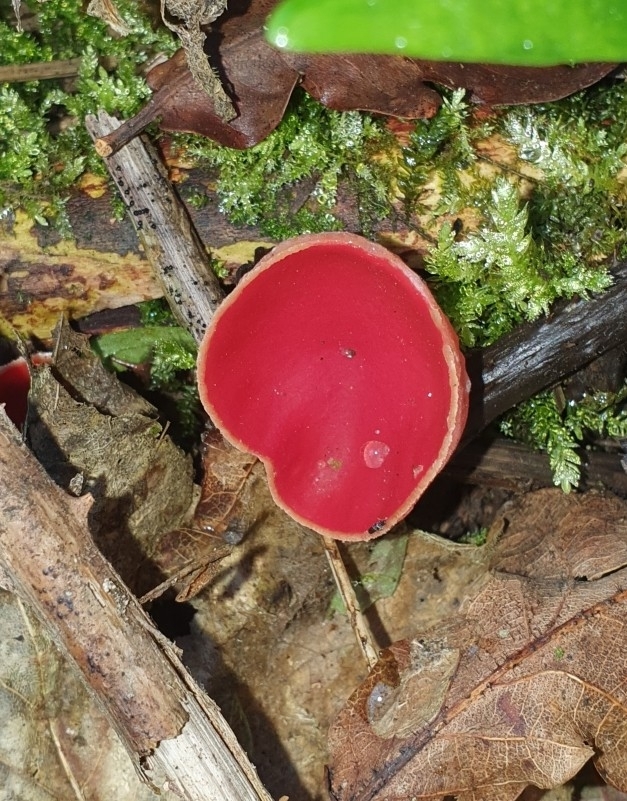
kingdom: Fungi
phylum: Ascomycota
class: Pezizomycetes
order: Pezizales
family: Sarcoscyphaceae
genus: Sarcoscypha
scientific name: Sarcoscypha
